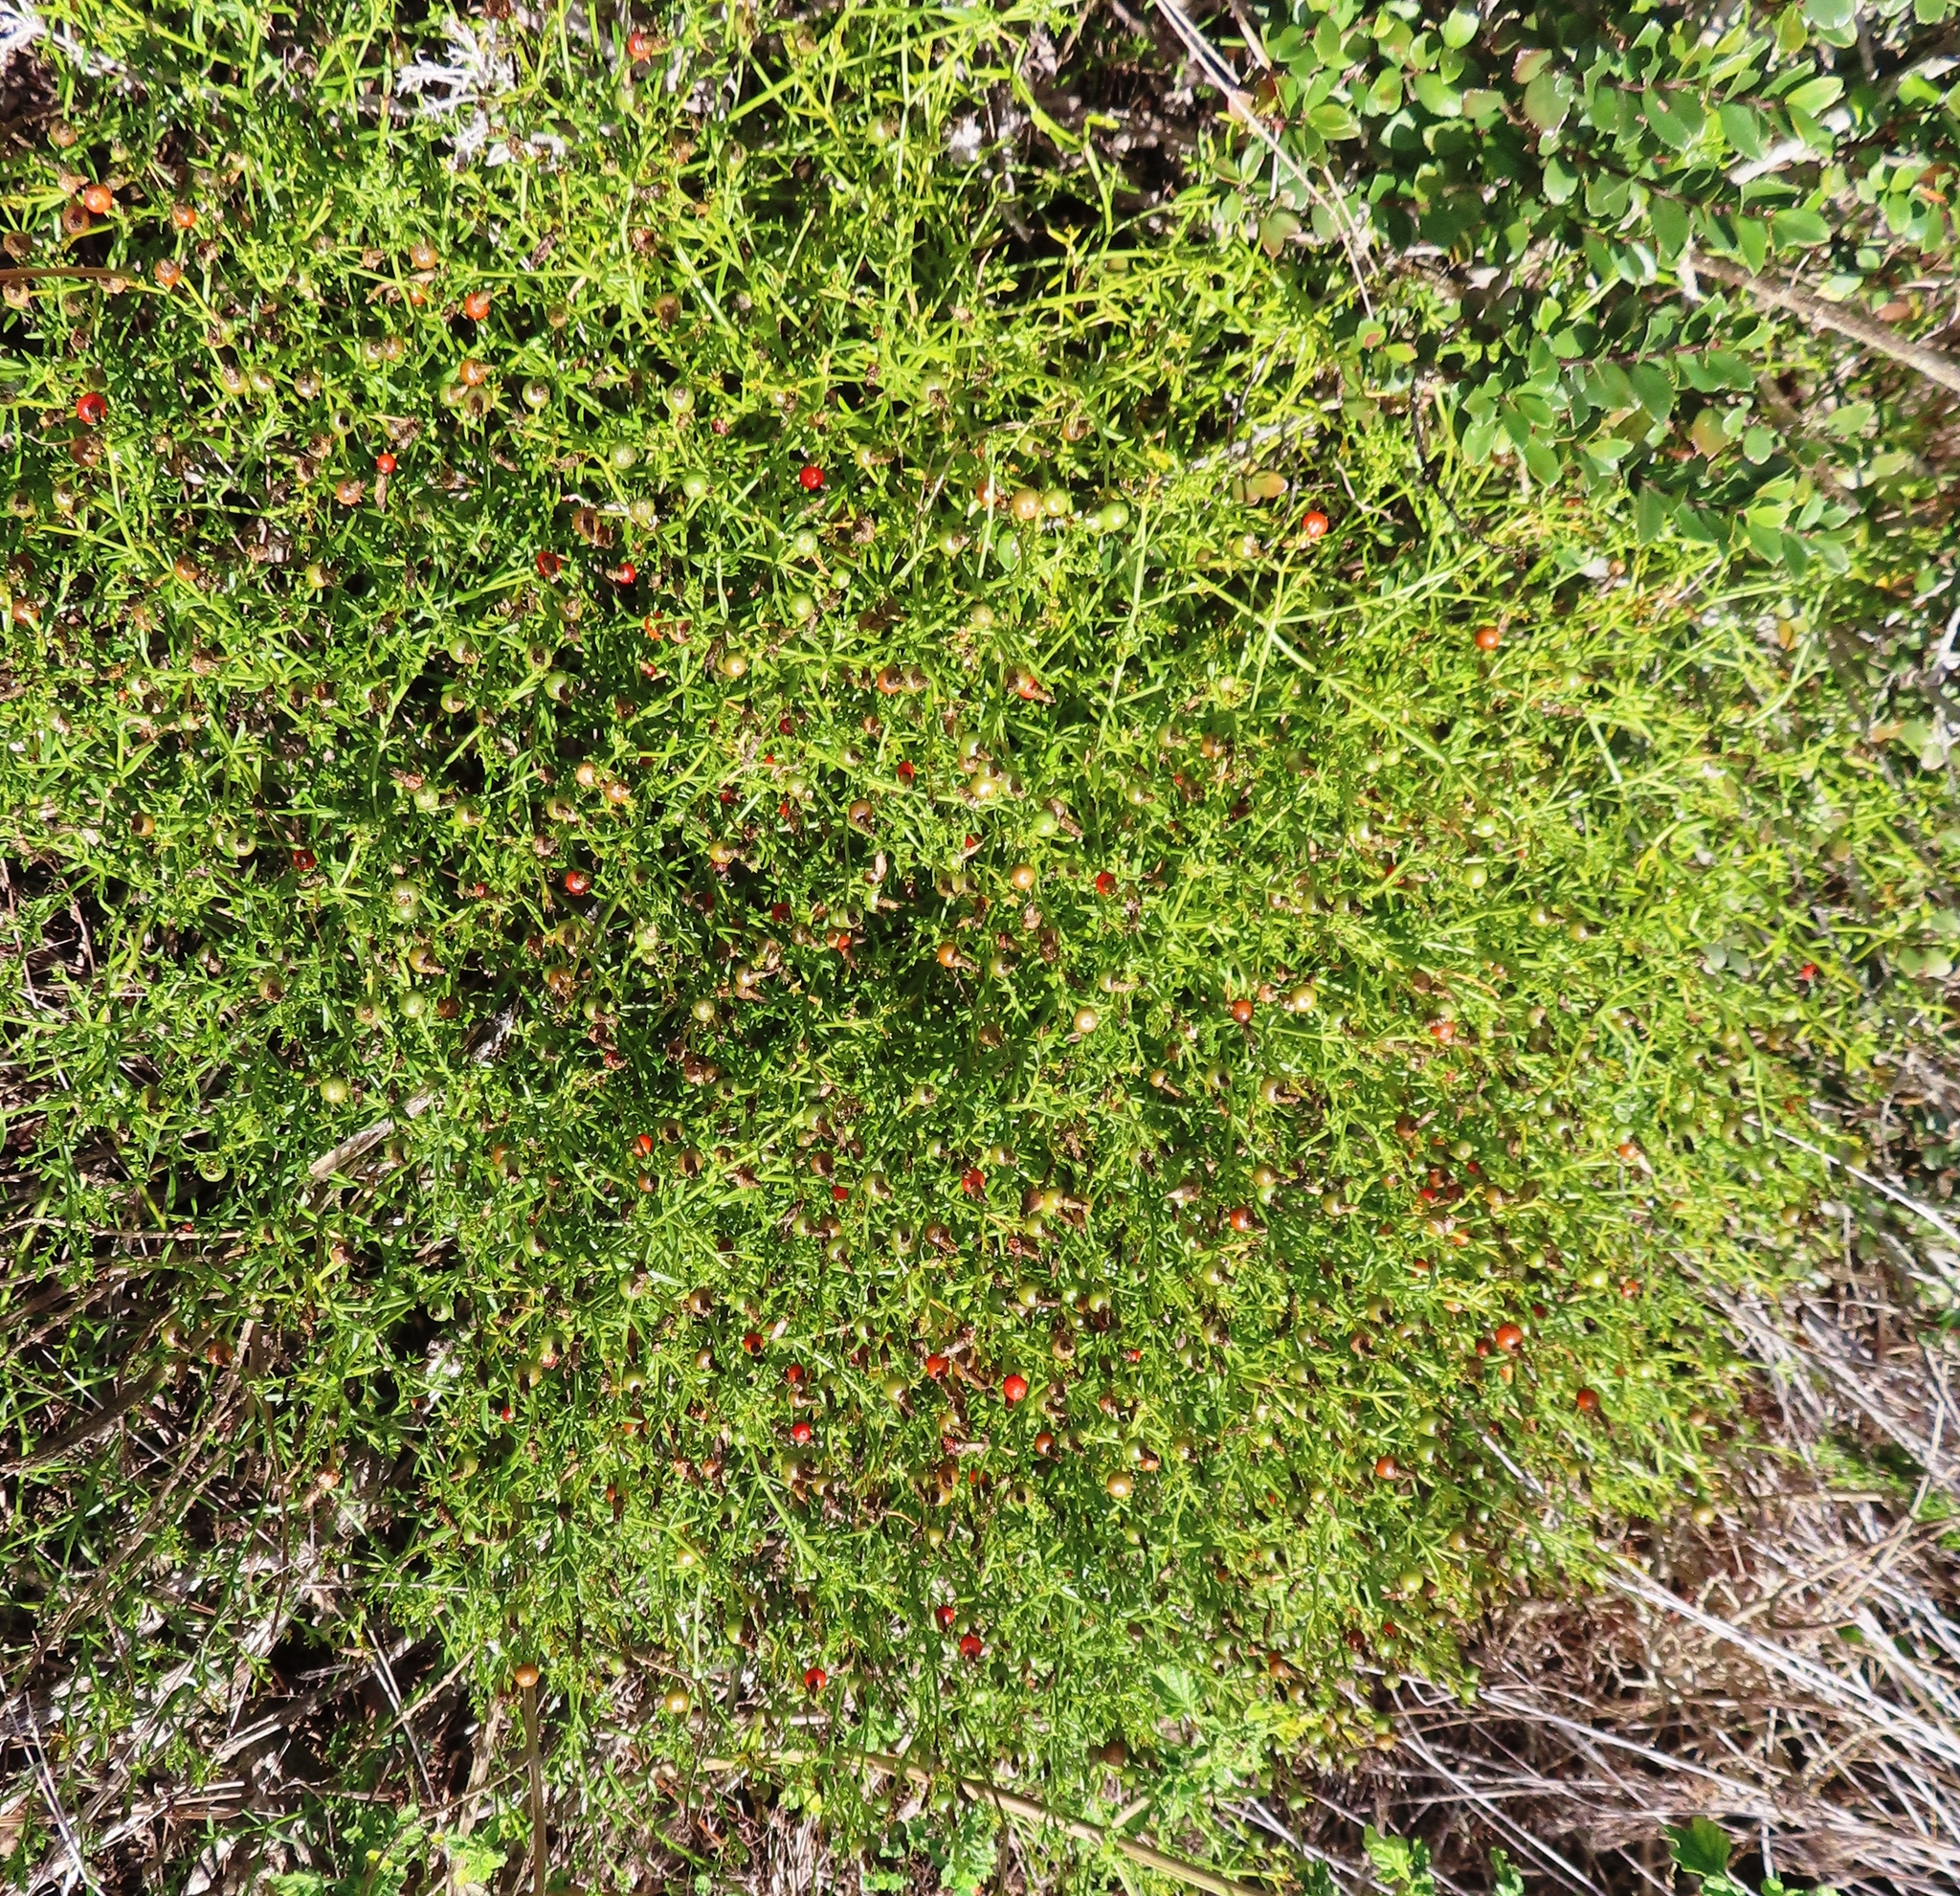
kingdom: Plantae
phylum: Tracheophyta
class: Magnoliopsida
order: Gentianales
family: Gentianaceae
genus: Chironia
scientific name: Chironia baccifera
